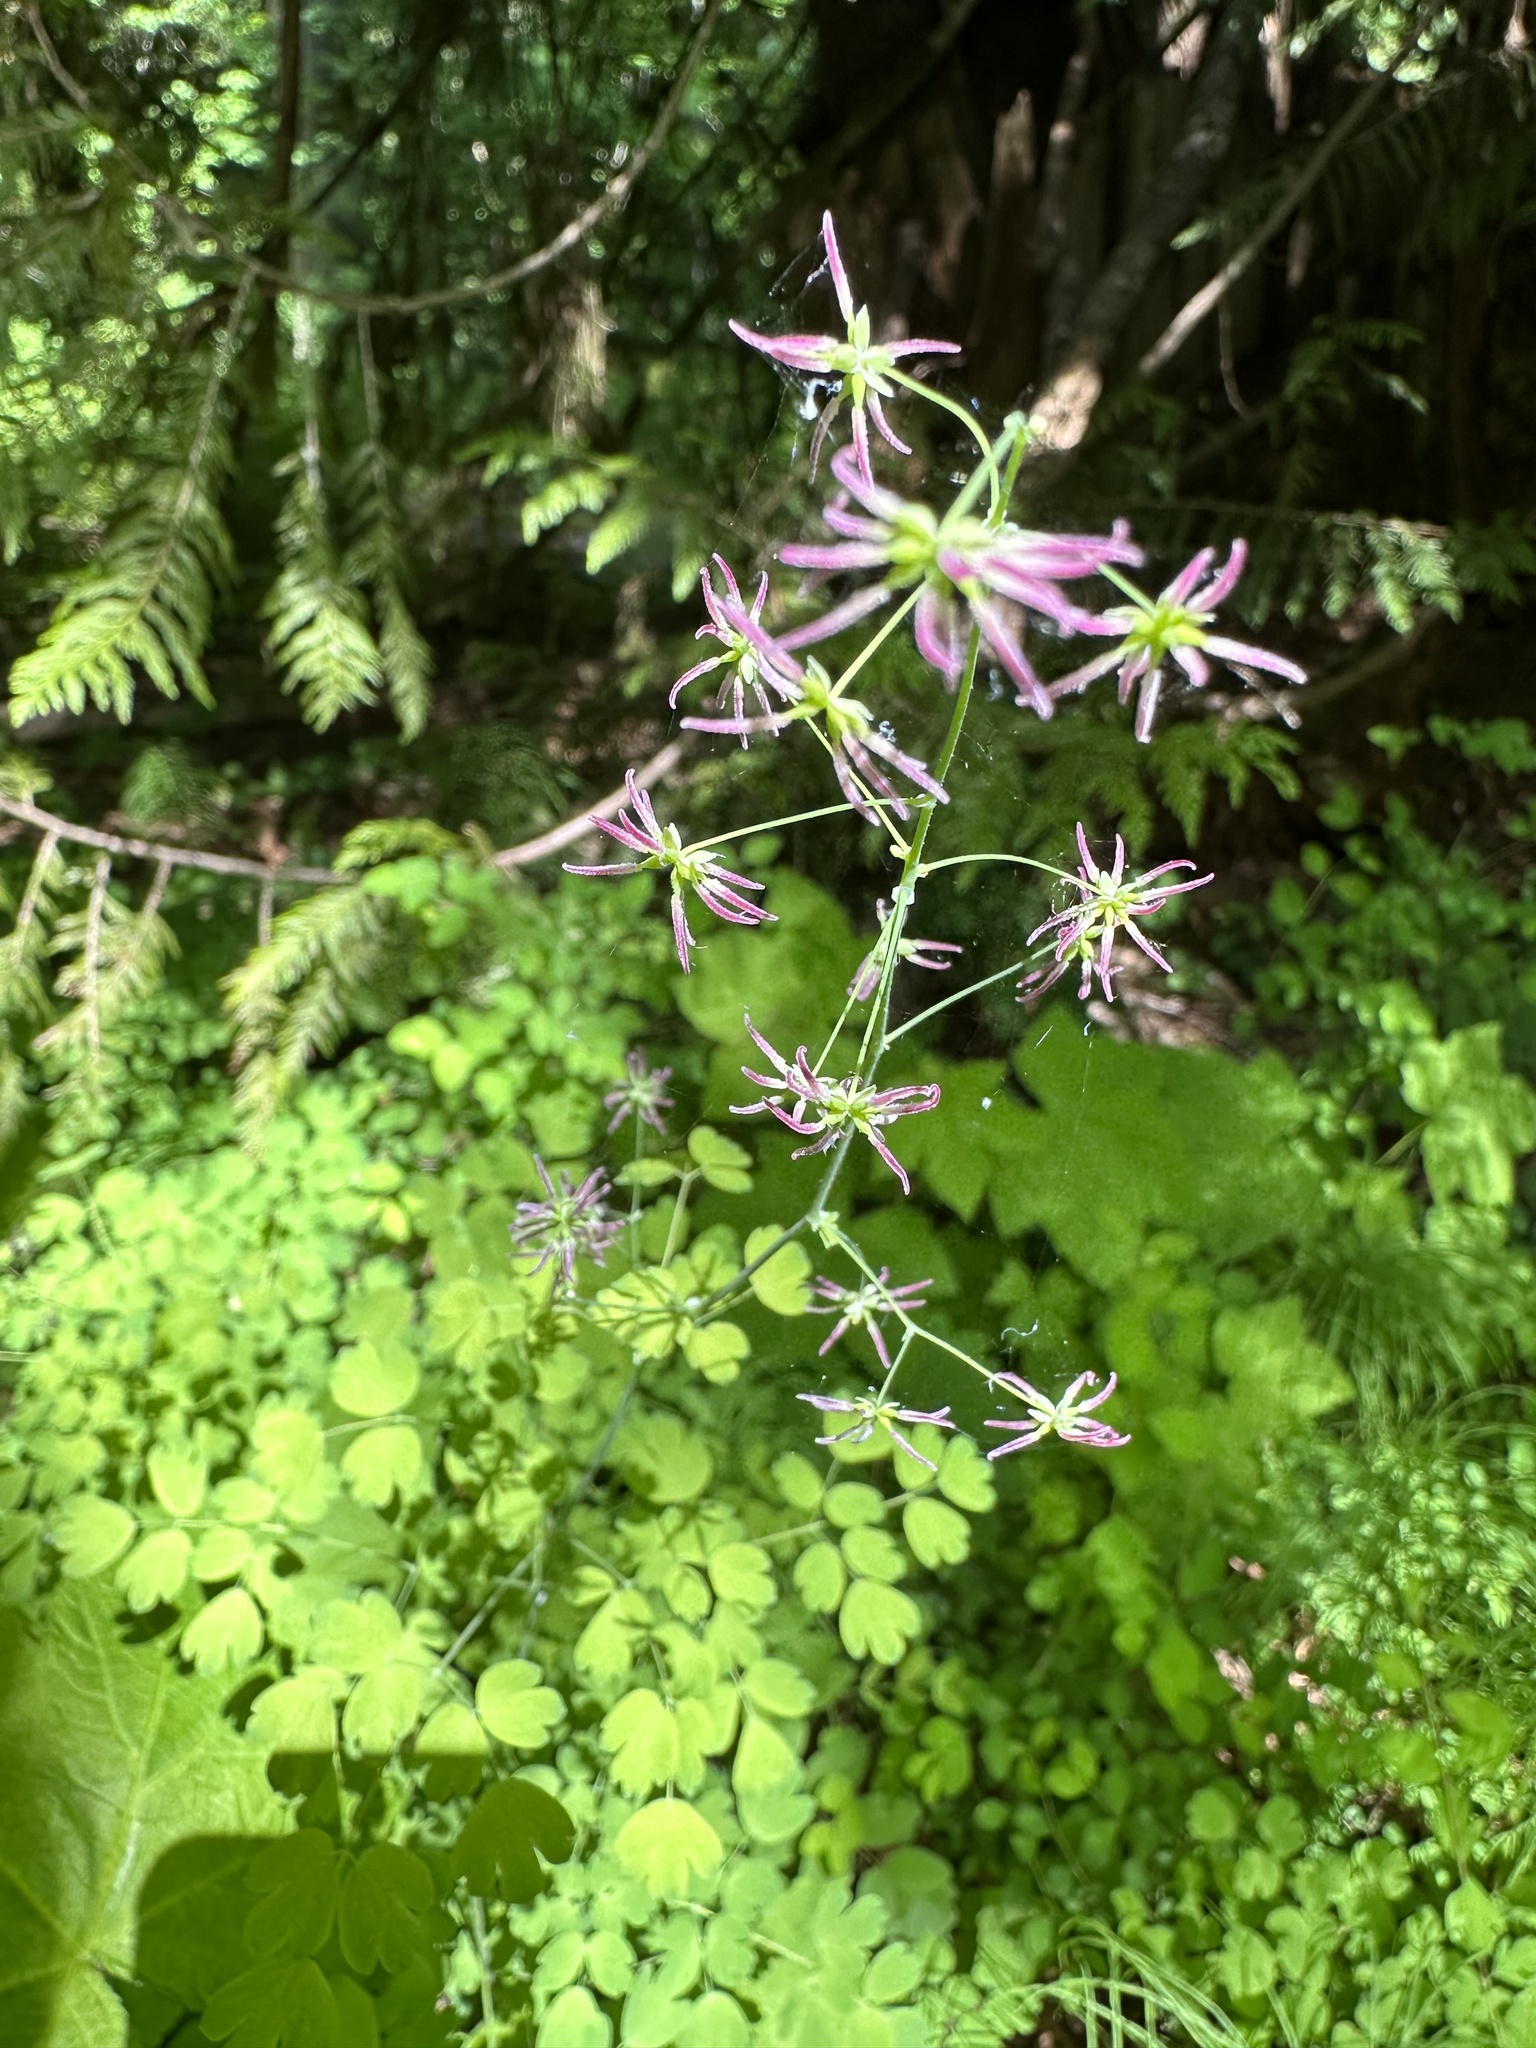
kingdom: Plantae
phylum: Tracheophyta
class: Magnoliopsida
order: Ranunculales
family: Ranunculaceae
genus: Thalictrum
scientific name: Thalictrum occidentale
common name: Western meadow-rue
